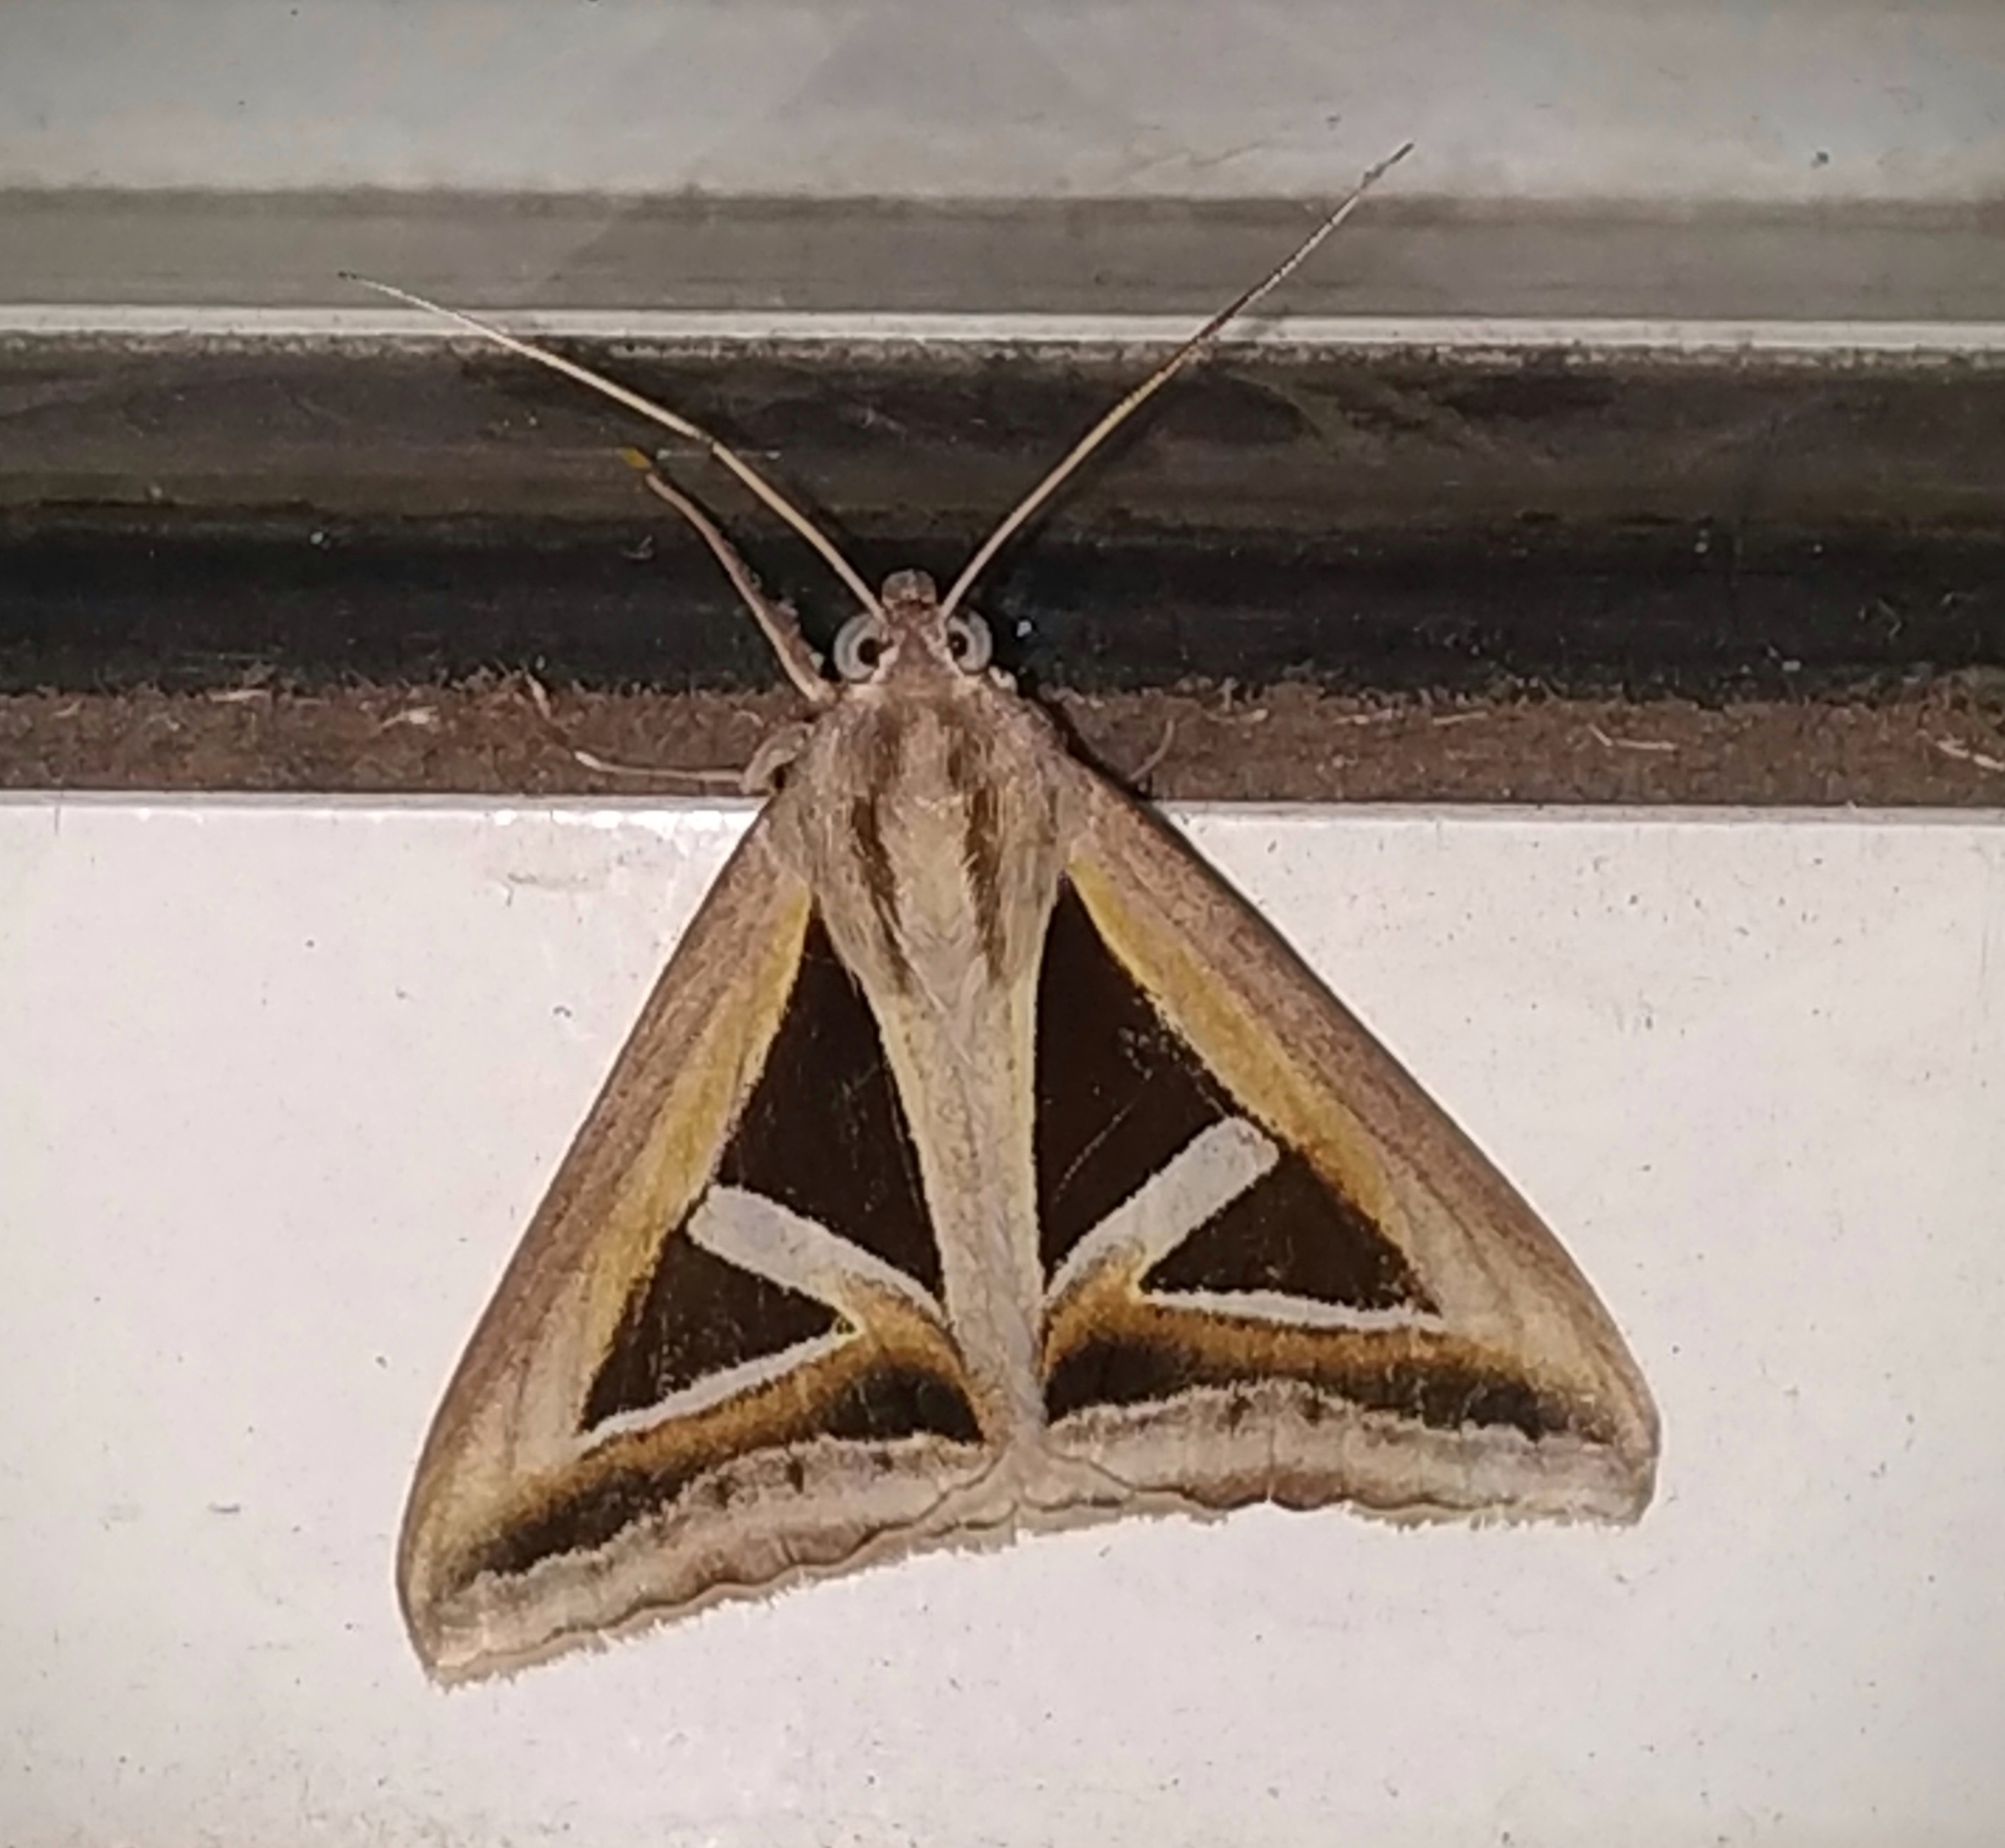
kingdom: Animalia
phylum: Arthropoda
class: Insecta
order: Lepidoptera
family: Erebidae
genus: Trigonodes
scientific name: Trigonodes hyppasia
